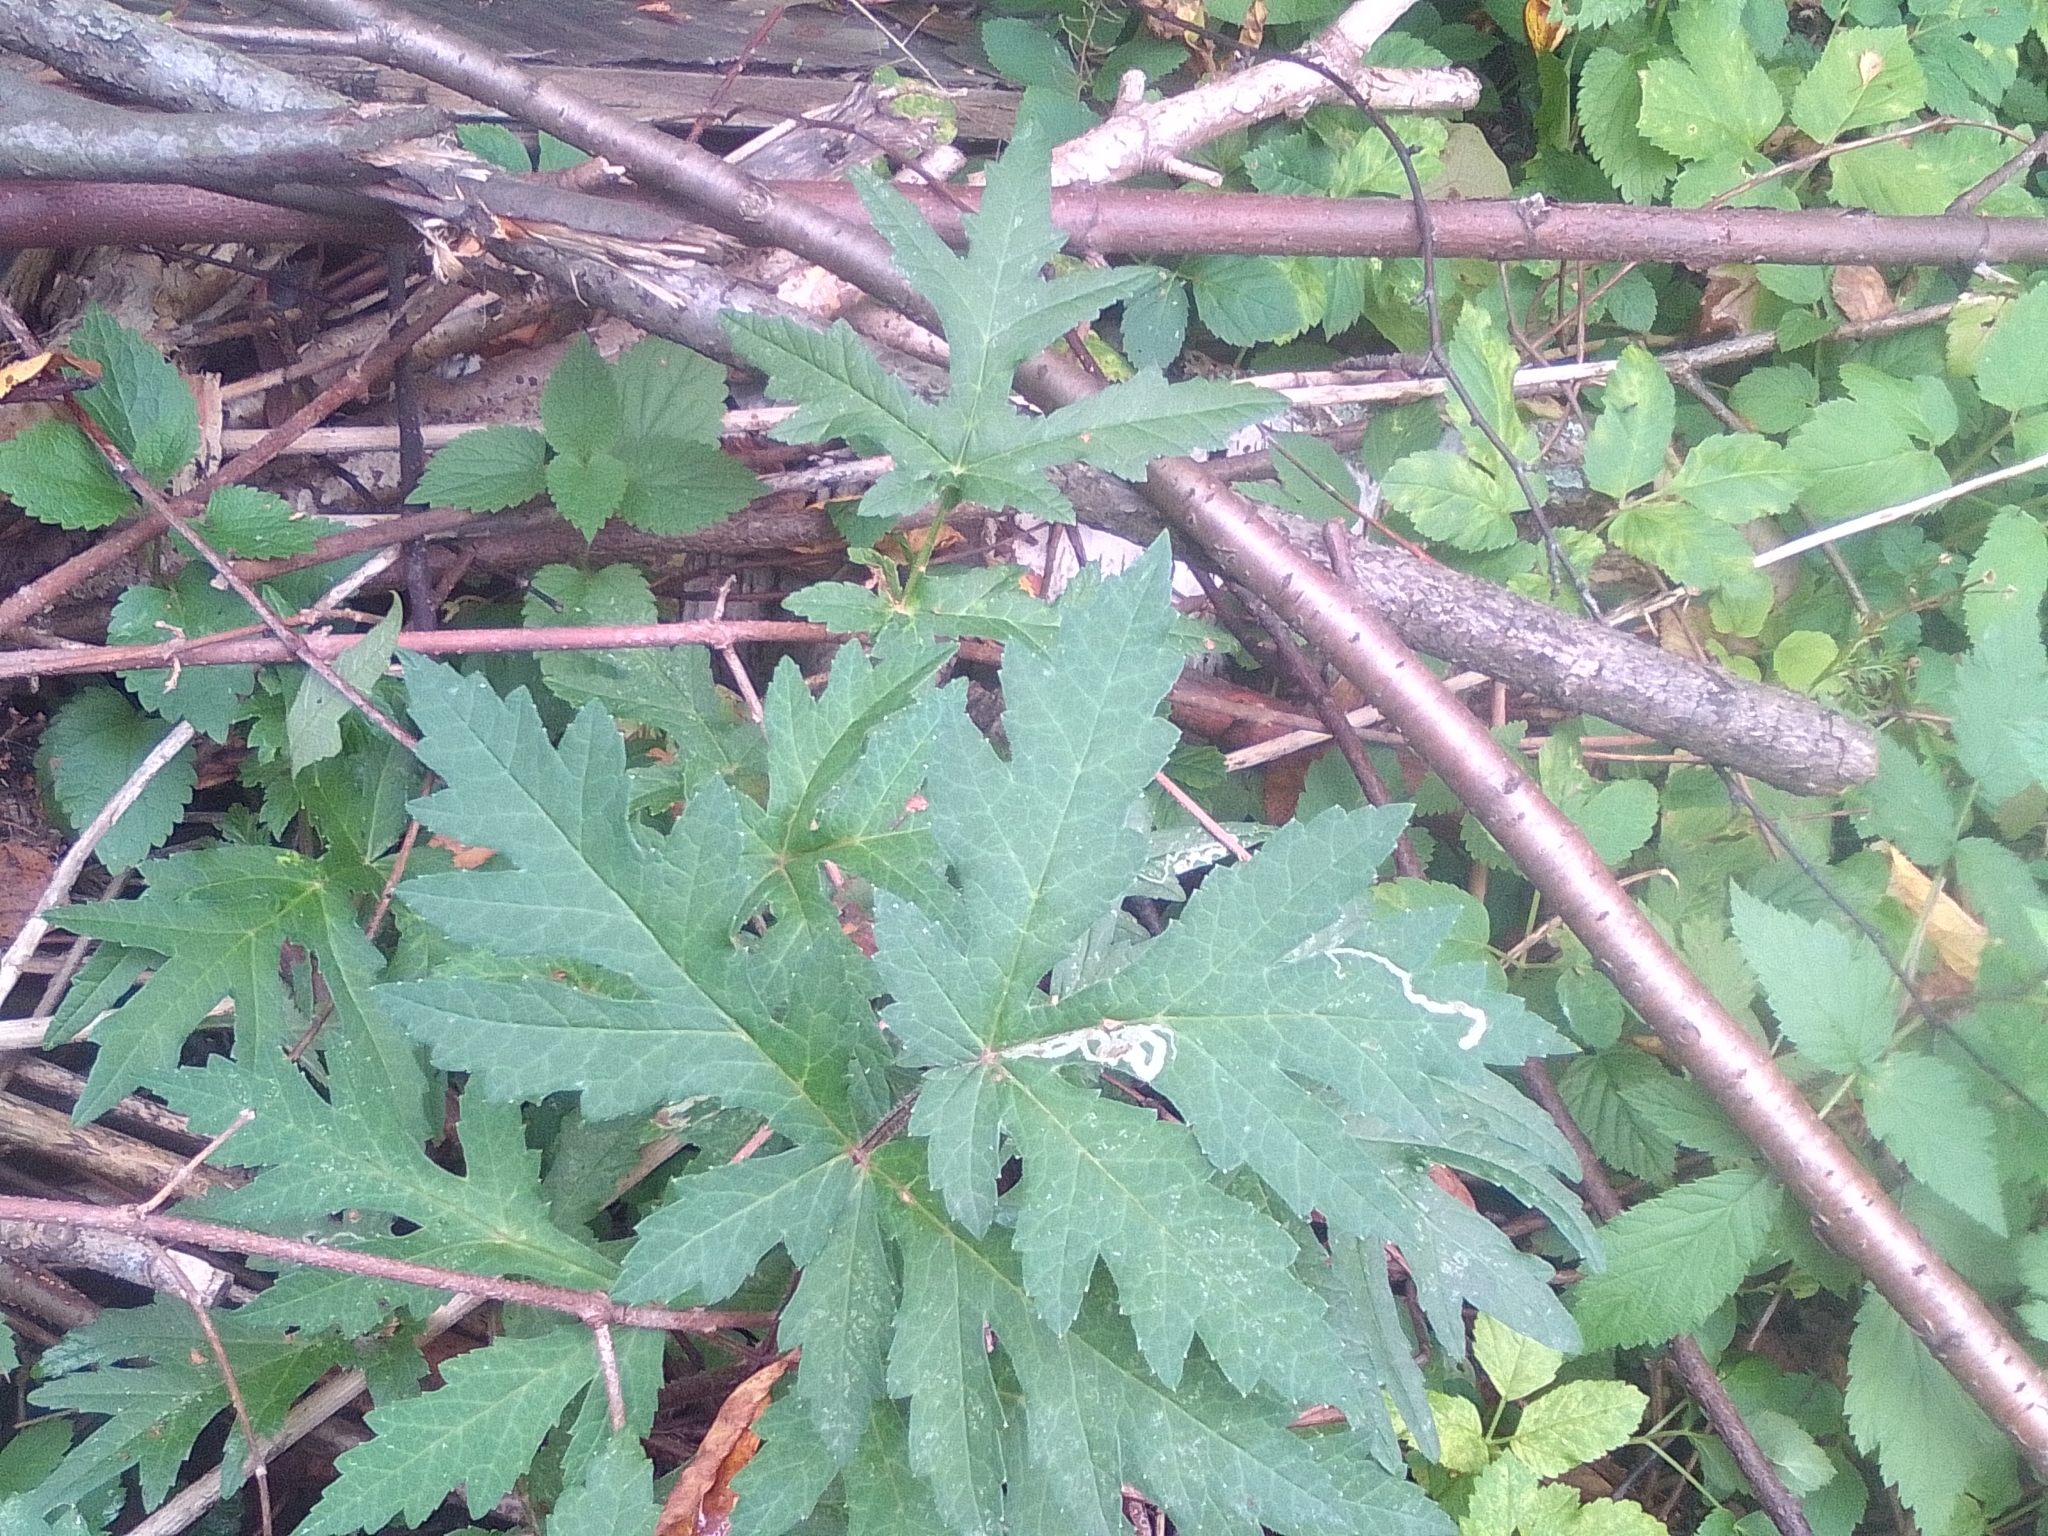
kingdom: Plantae
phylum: Tracheophyta
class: Magnoliopsida
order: Apiales
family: Apiaceae
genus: Heracleum
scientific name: Heracleum sphondylium
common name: Hogweed
